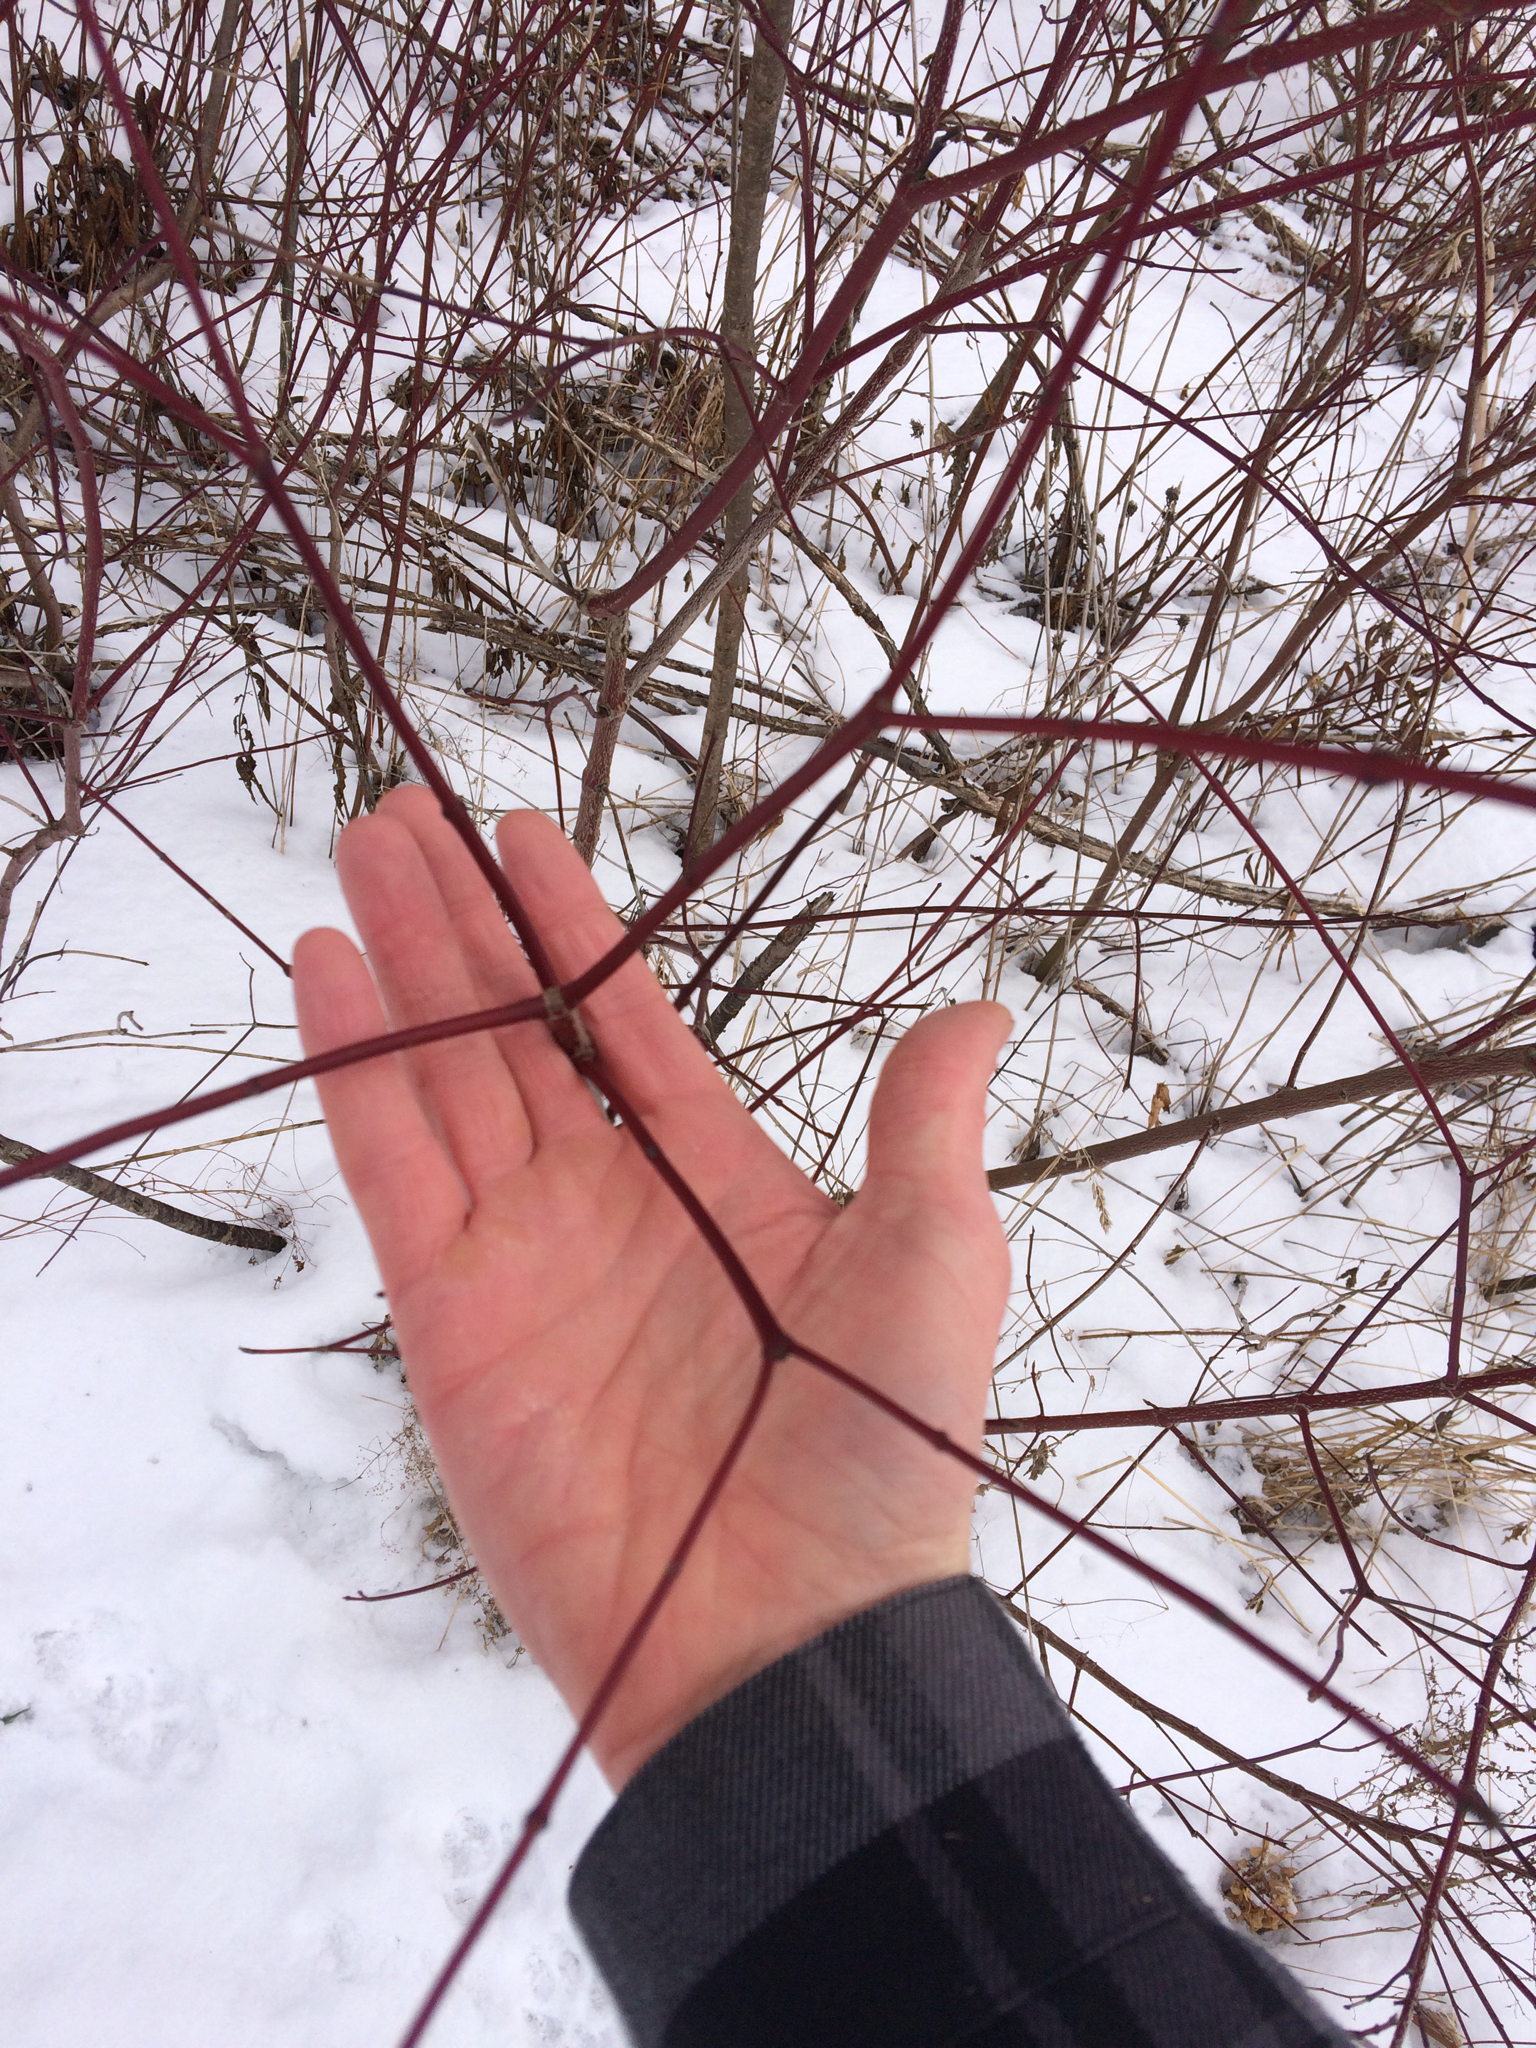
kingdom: Plantae
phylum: Tracheophyta
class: Magnoliopsida
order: Cornales
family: Cornaceae
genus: Cornus
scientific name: Cornus sericea
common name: Red-osier dogwood
